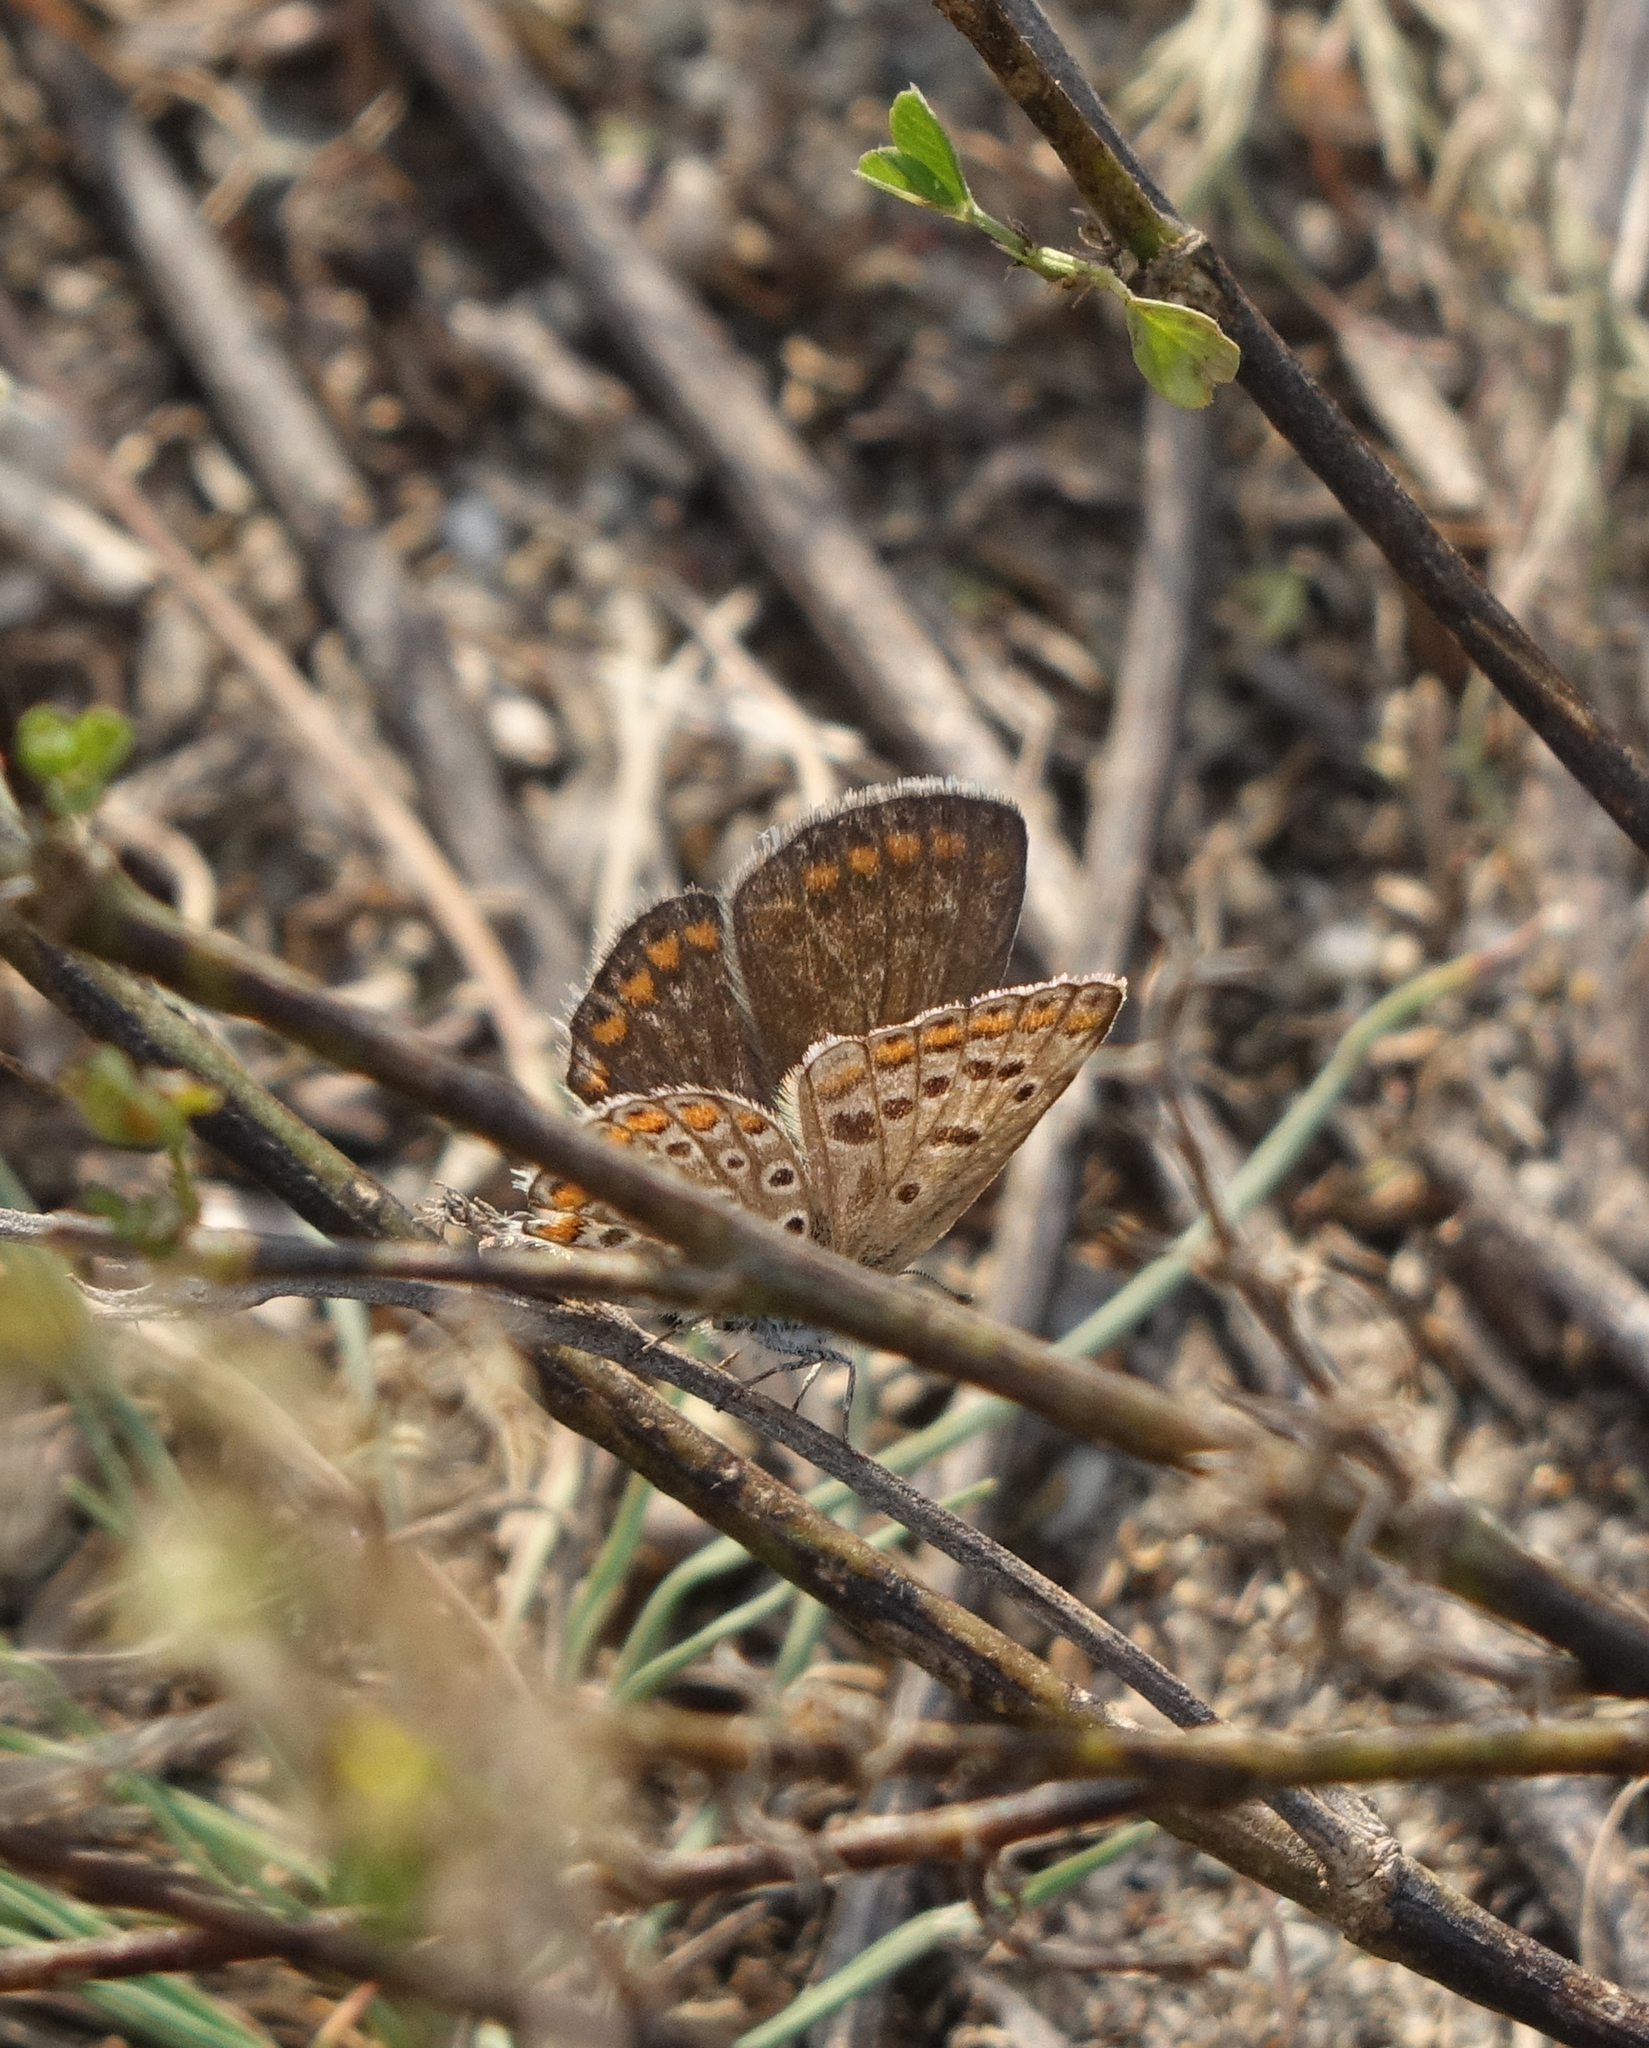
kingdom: Animalia
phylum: Arthropoda
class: Insecta
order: Lepidoptera
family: Lycaenidae
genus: Polyommatus
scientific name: Polyommatus icarus
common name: Common blue
